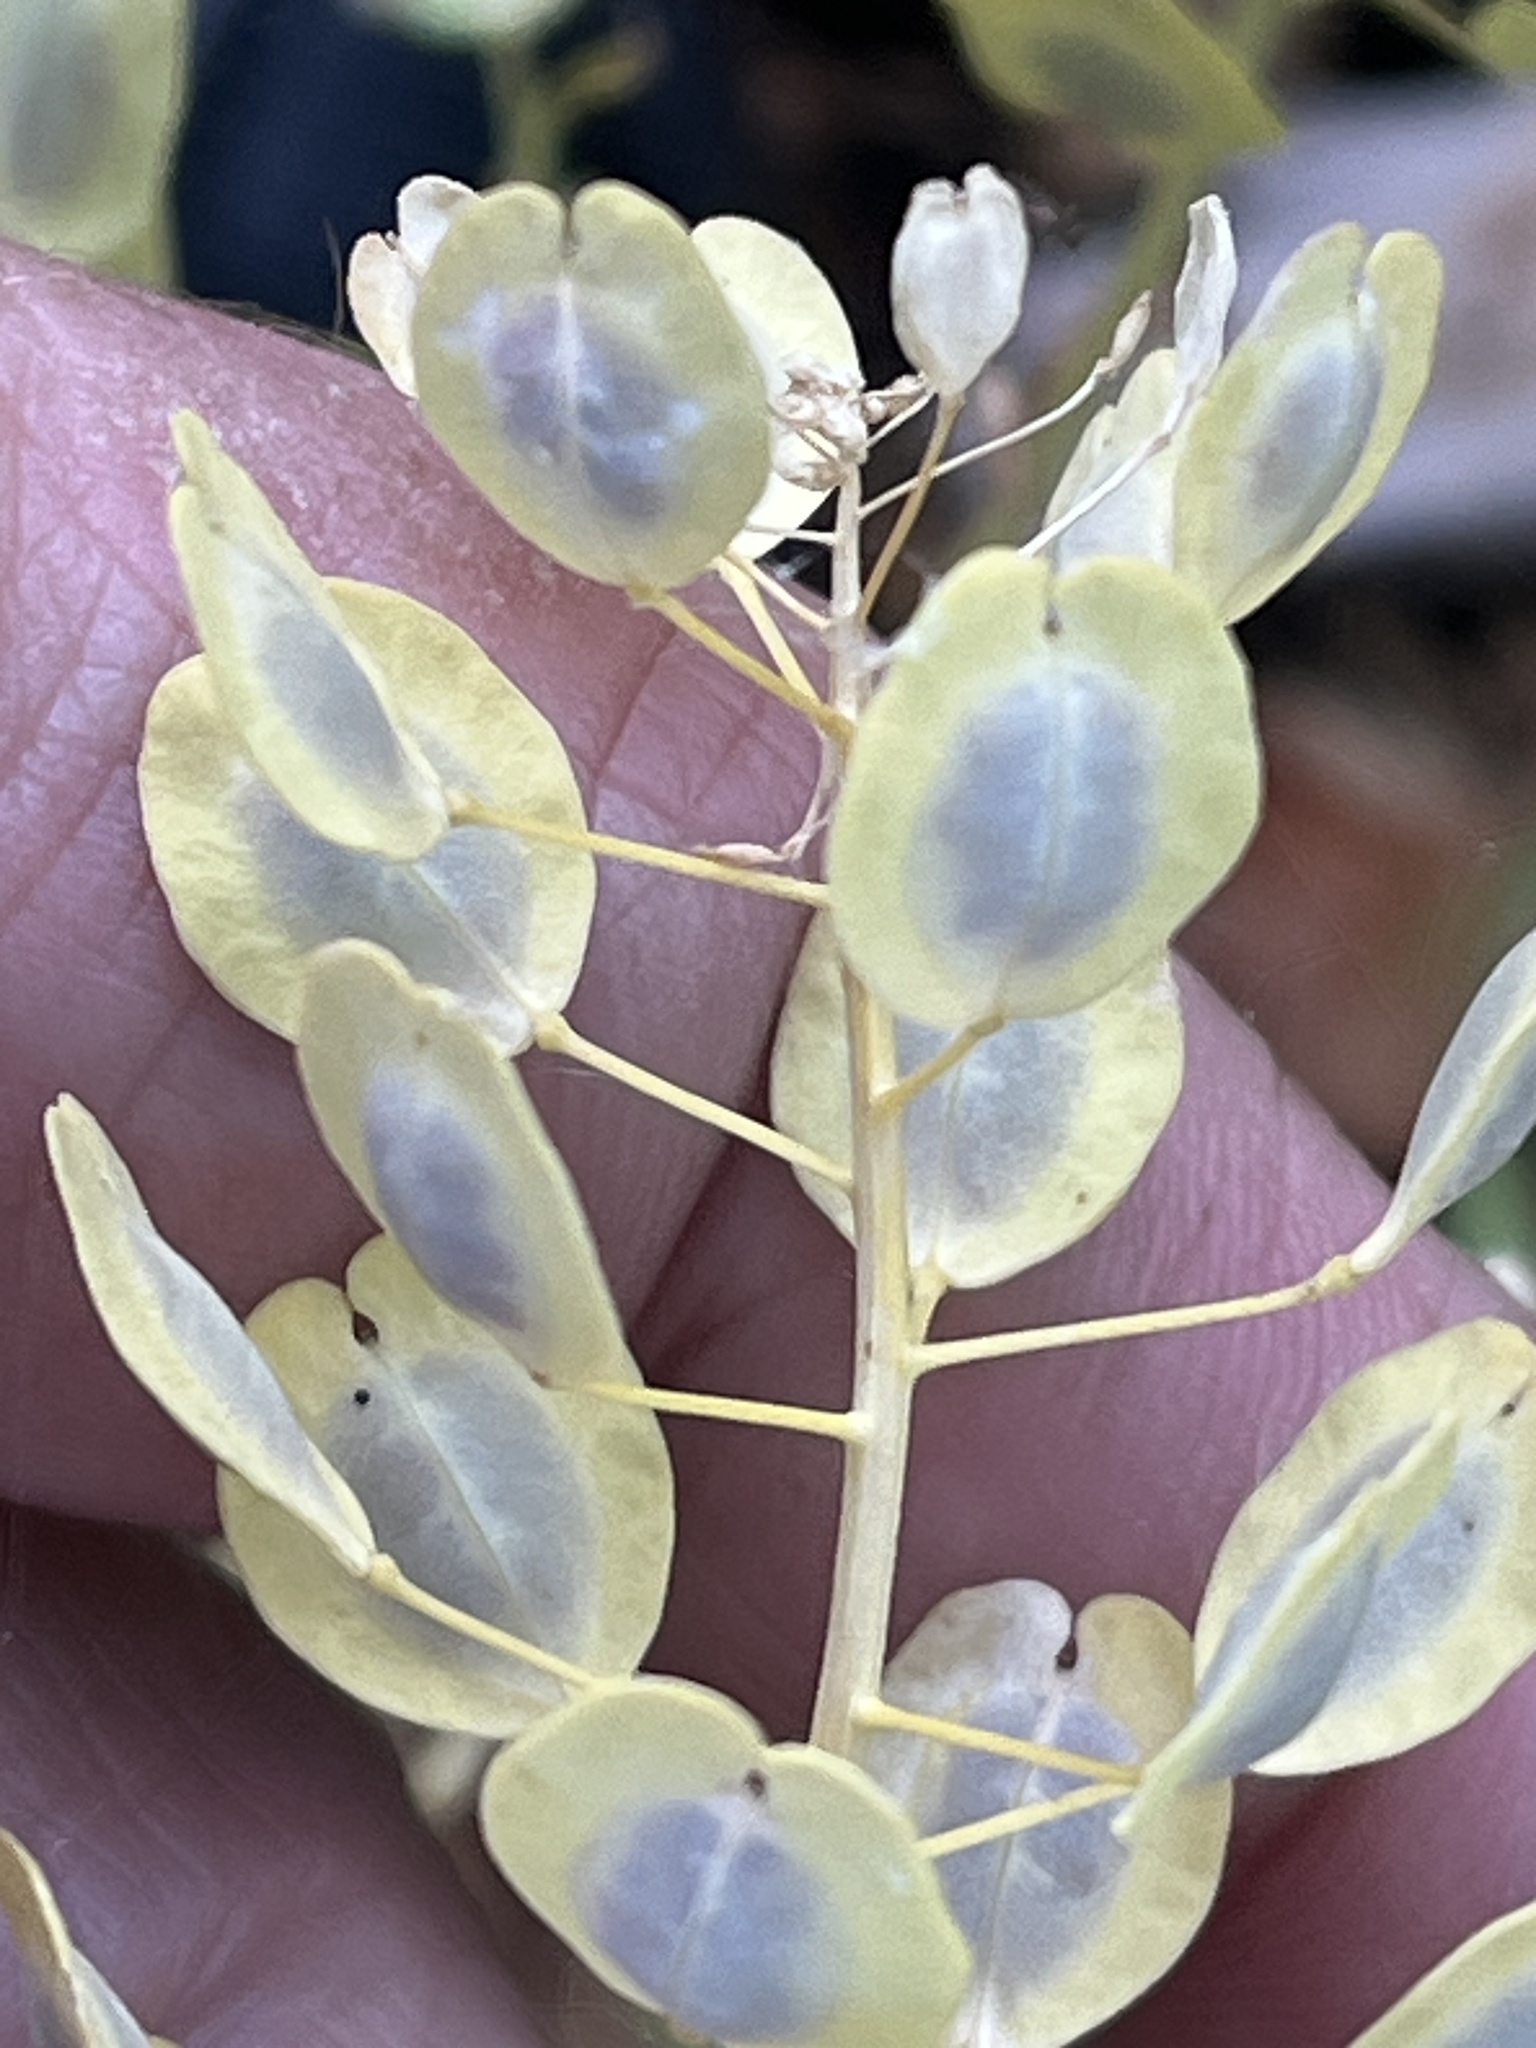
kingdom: Plantae
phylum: Tracheophyta
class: Magnoliopsida
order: Brassicales
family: Brassicaceae
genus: Thlaspi
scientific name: Thlaspi arvense
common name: Field pennycress
